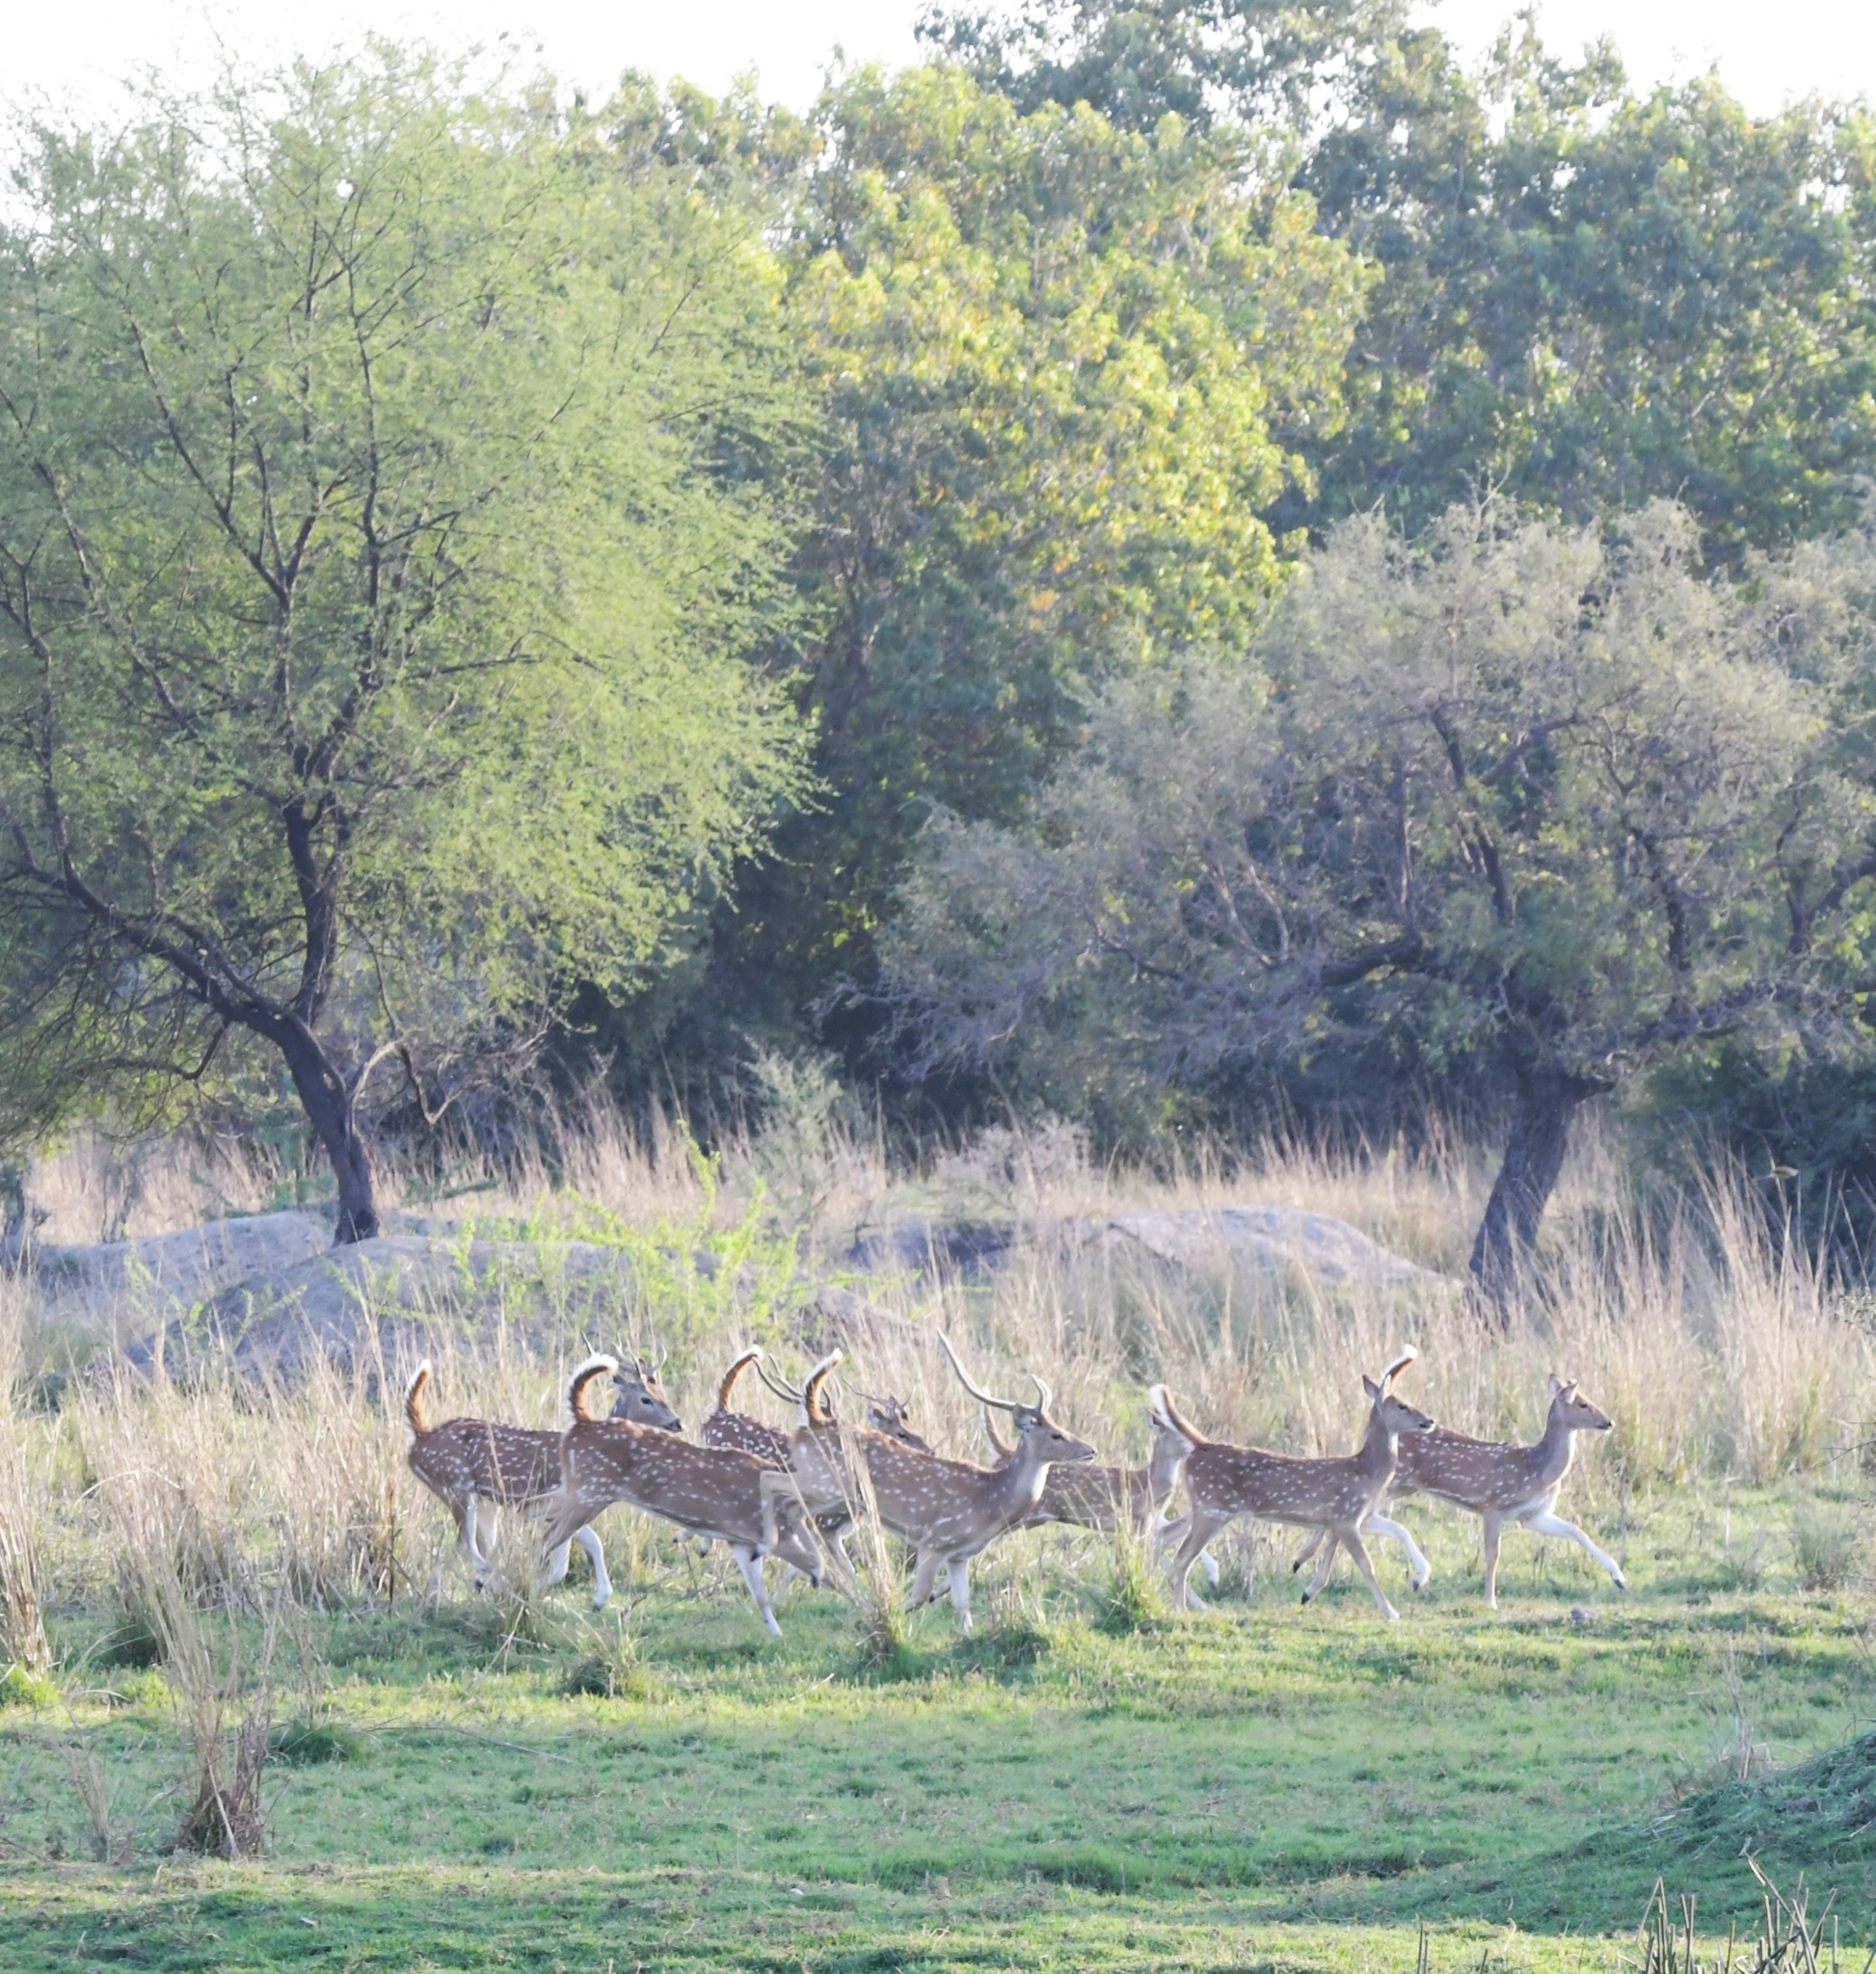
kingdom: Animalia
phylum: Chordata
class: Mammalia
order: Artiodactyla
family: Cervidae
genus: Axis
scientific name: Axis axis
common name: Chital
